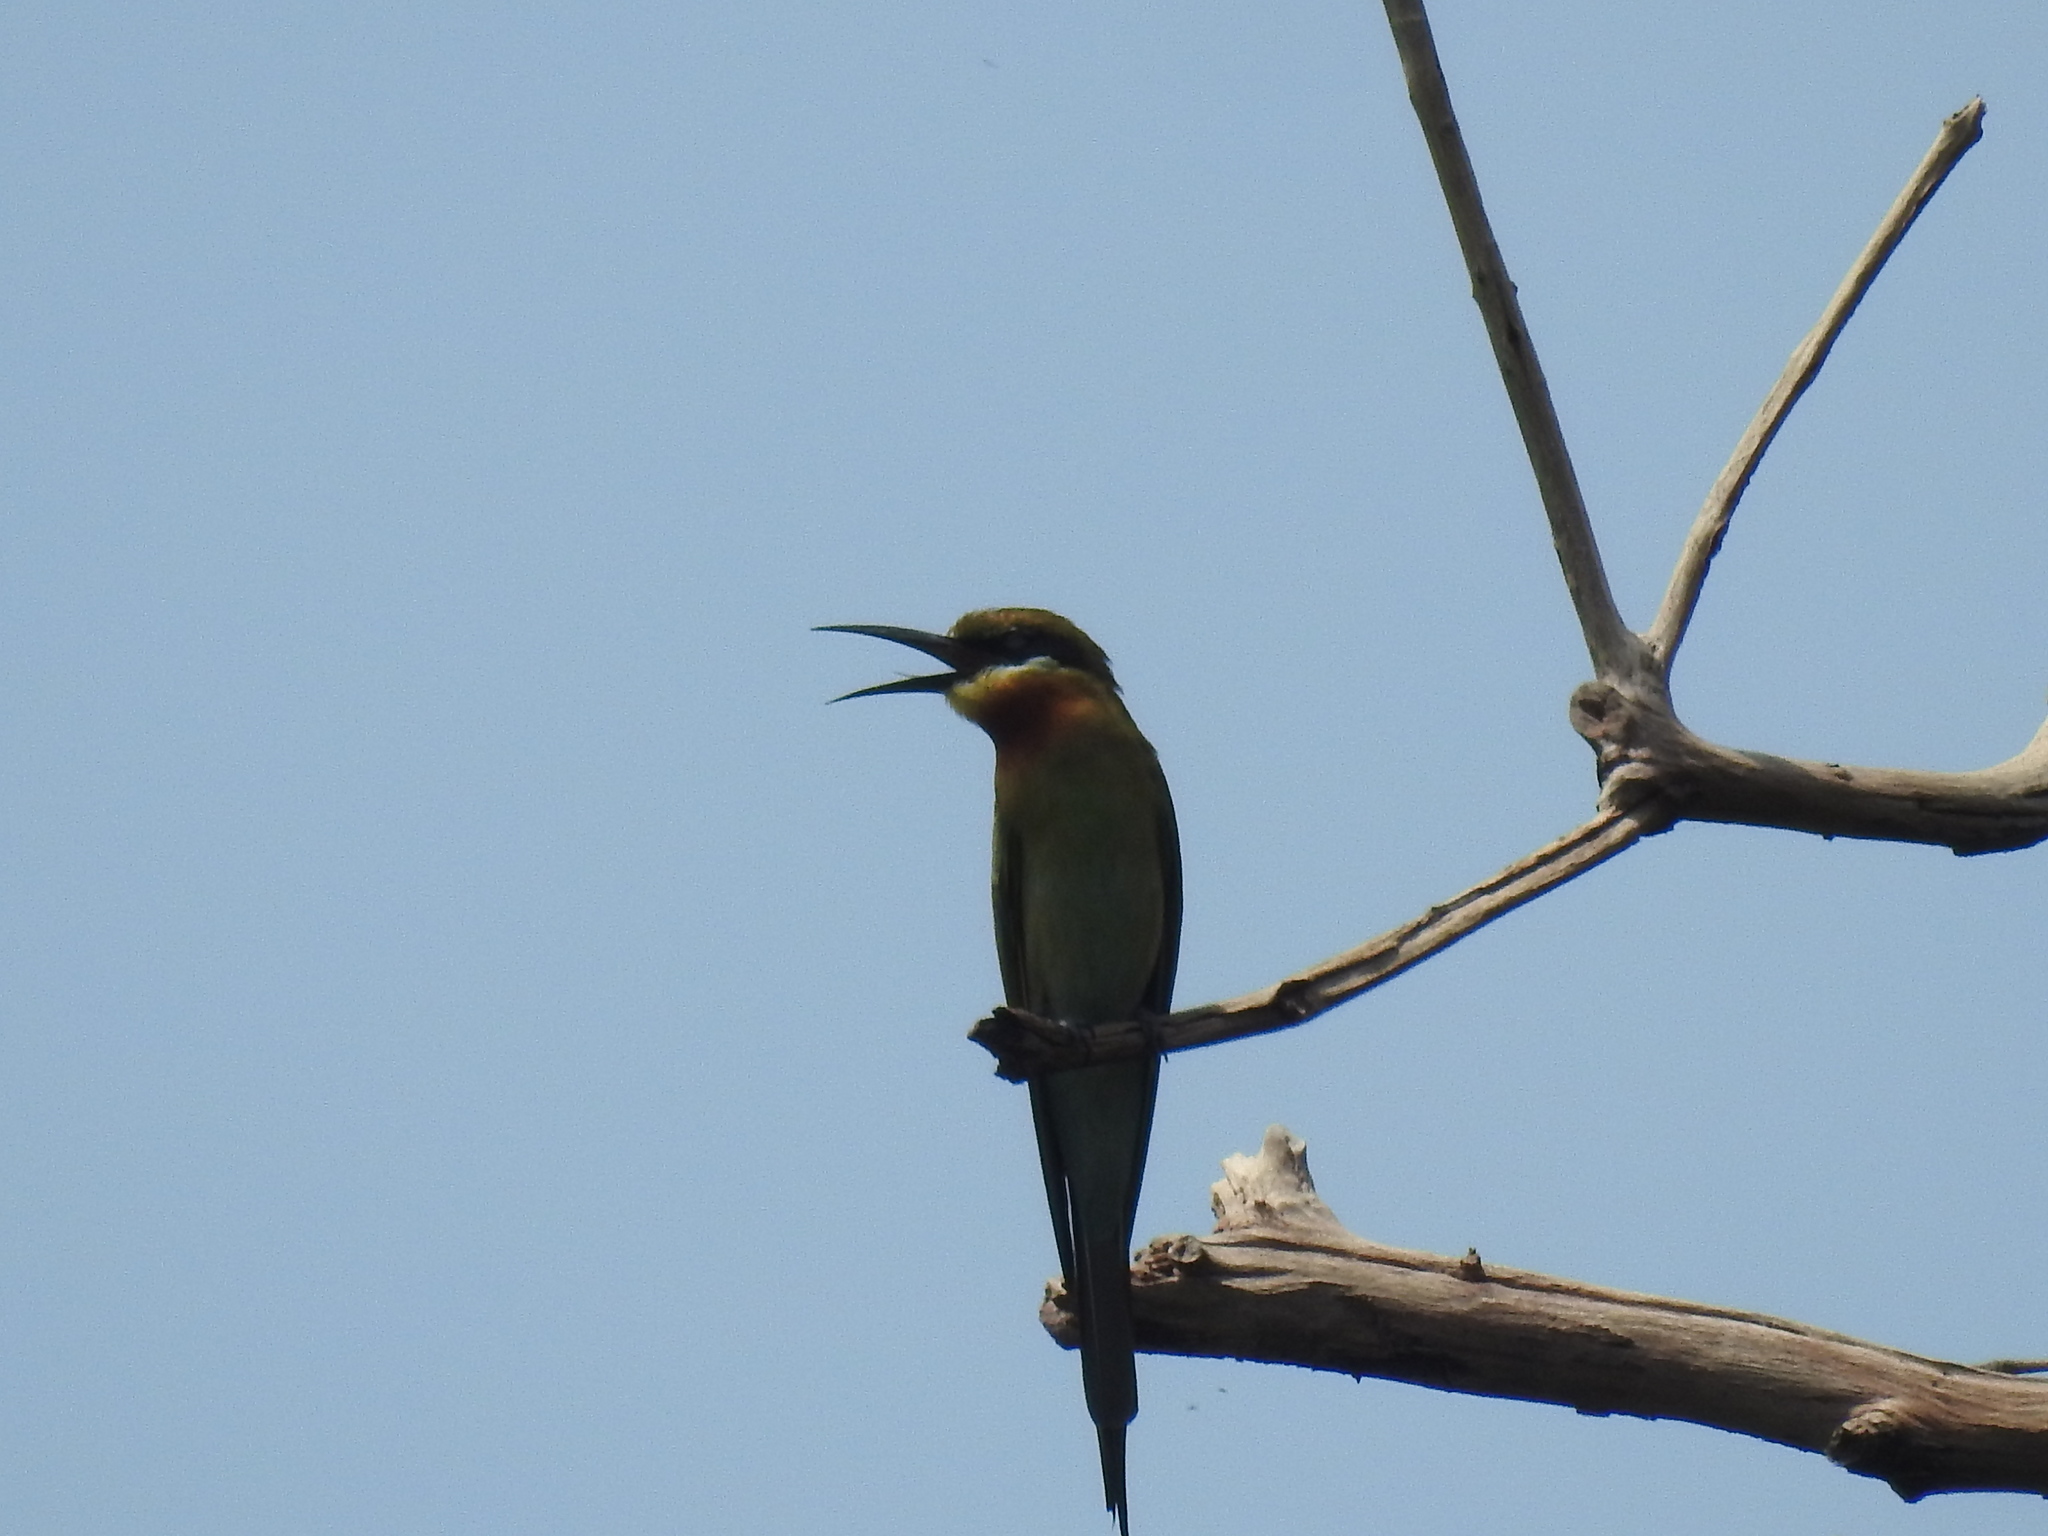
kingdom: Animalia
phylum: Chordata
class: Aves
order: Coraciiformes
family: Meropidae
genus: Merops
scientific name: Merops philippinus
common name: Blue-tailed bee-eater
